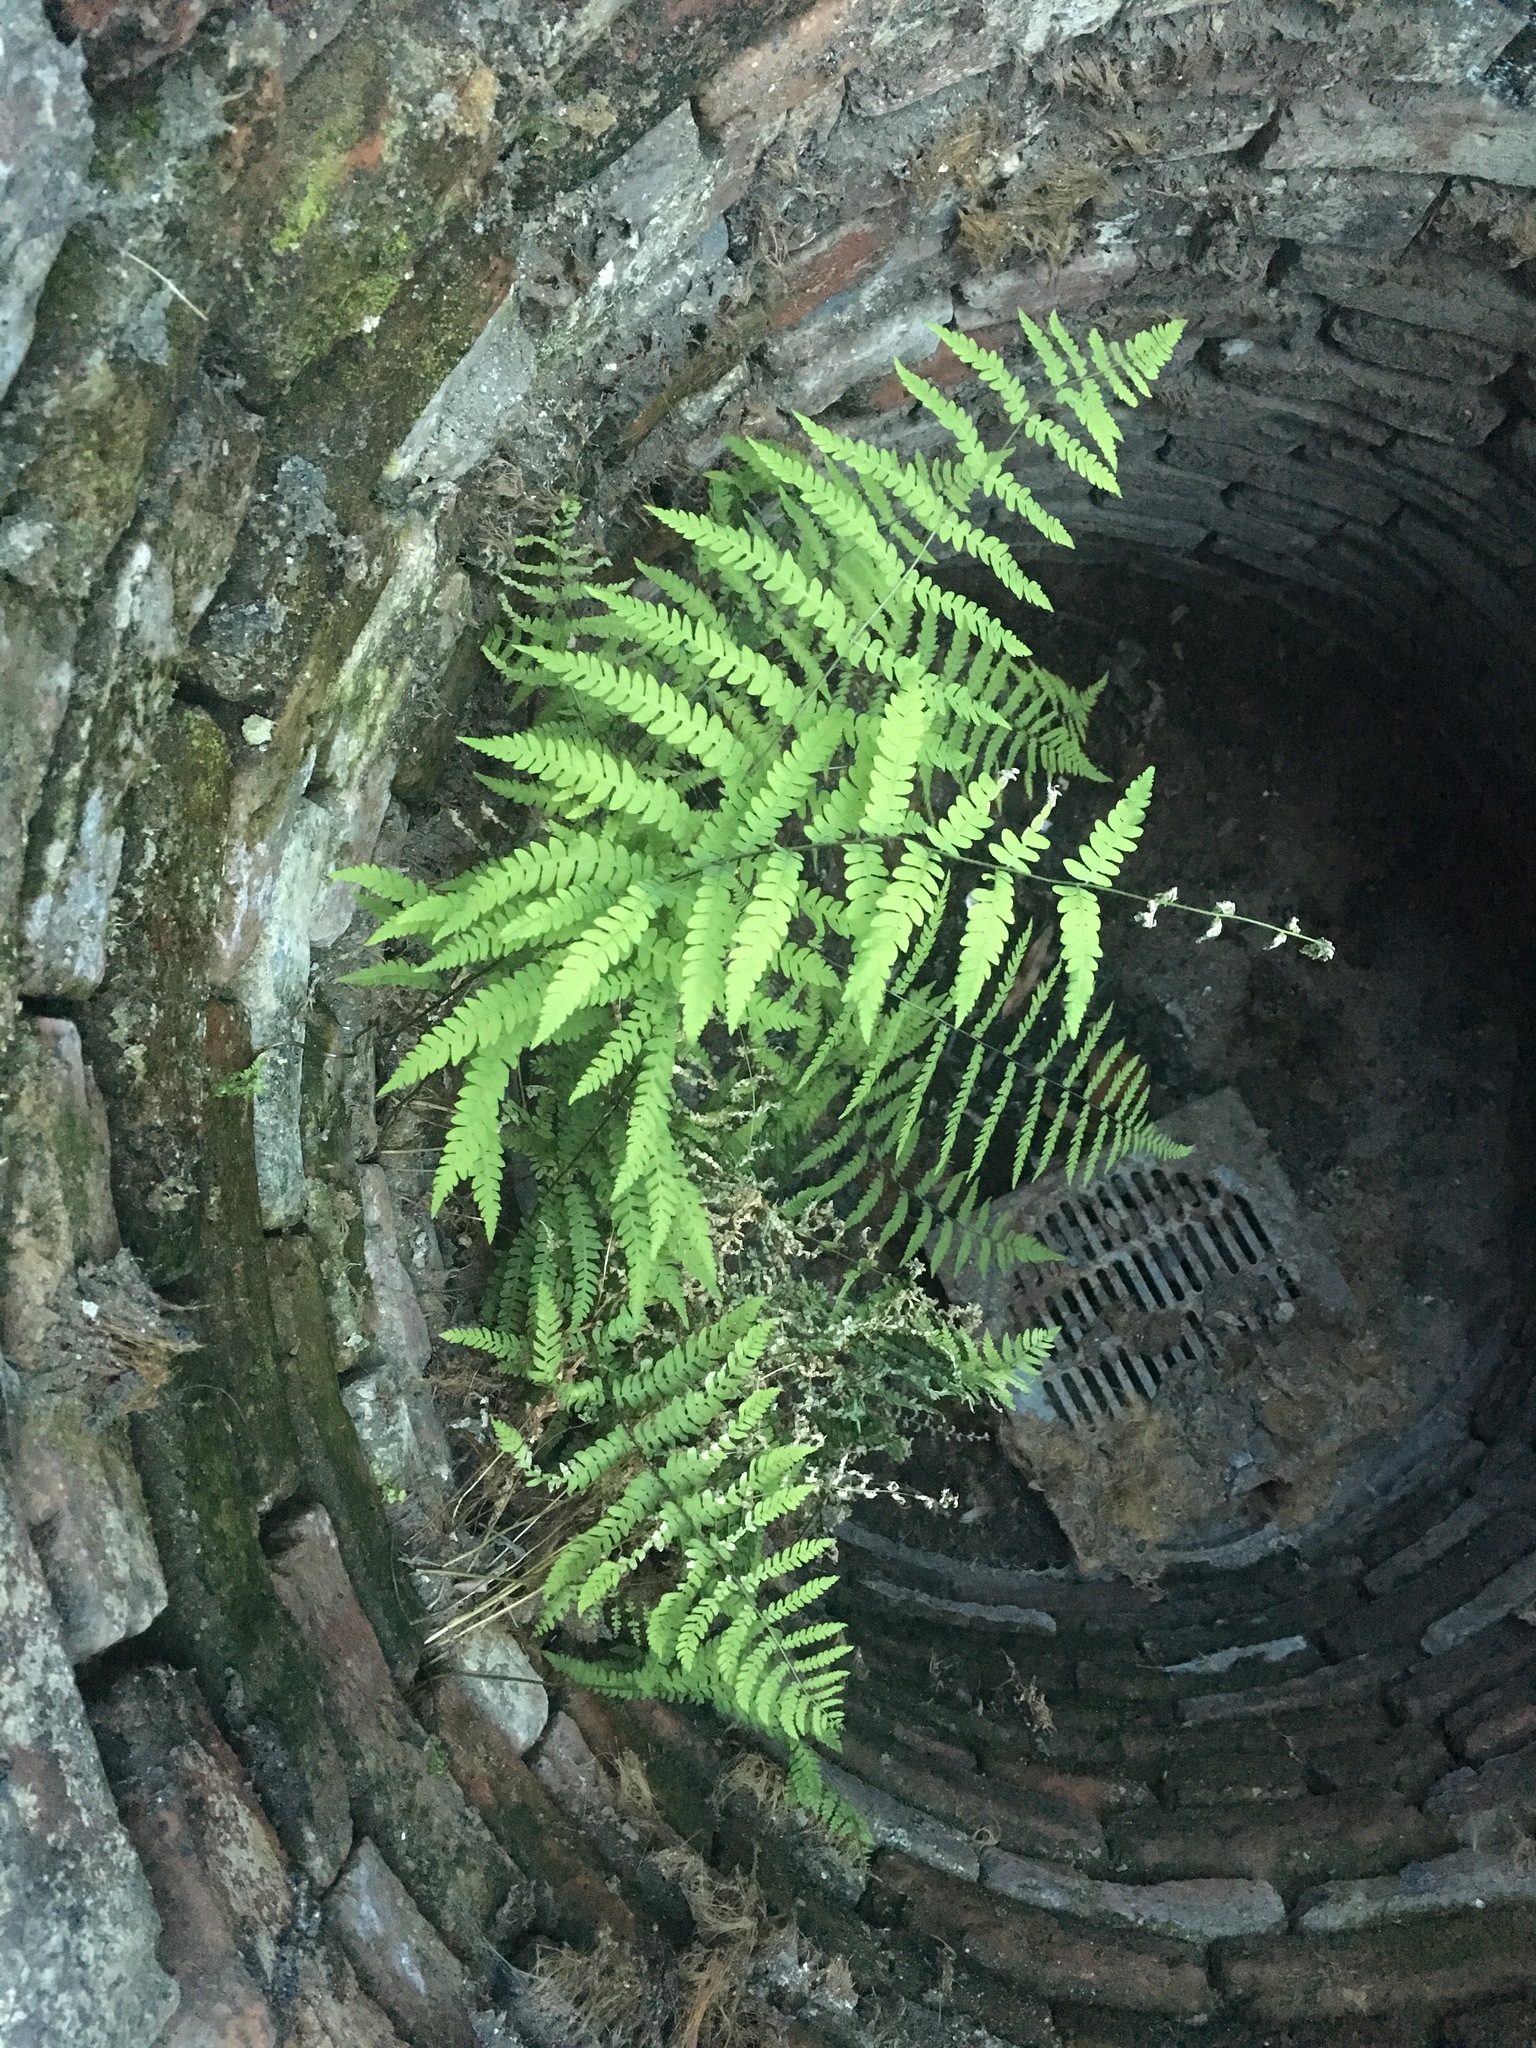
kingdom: Plantae
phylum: Tracheophyta
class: Polypodiopsida
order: Polypodiales
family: Thelypteridaceae
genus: Thelypteris
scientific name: Thelypteris palustris
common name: Marsh fern
